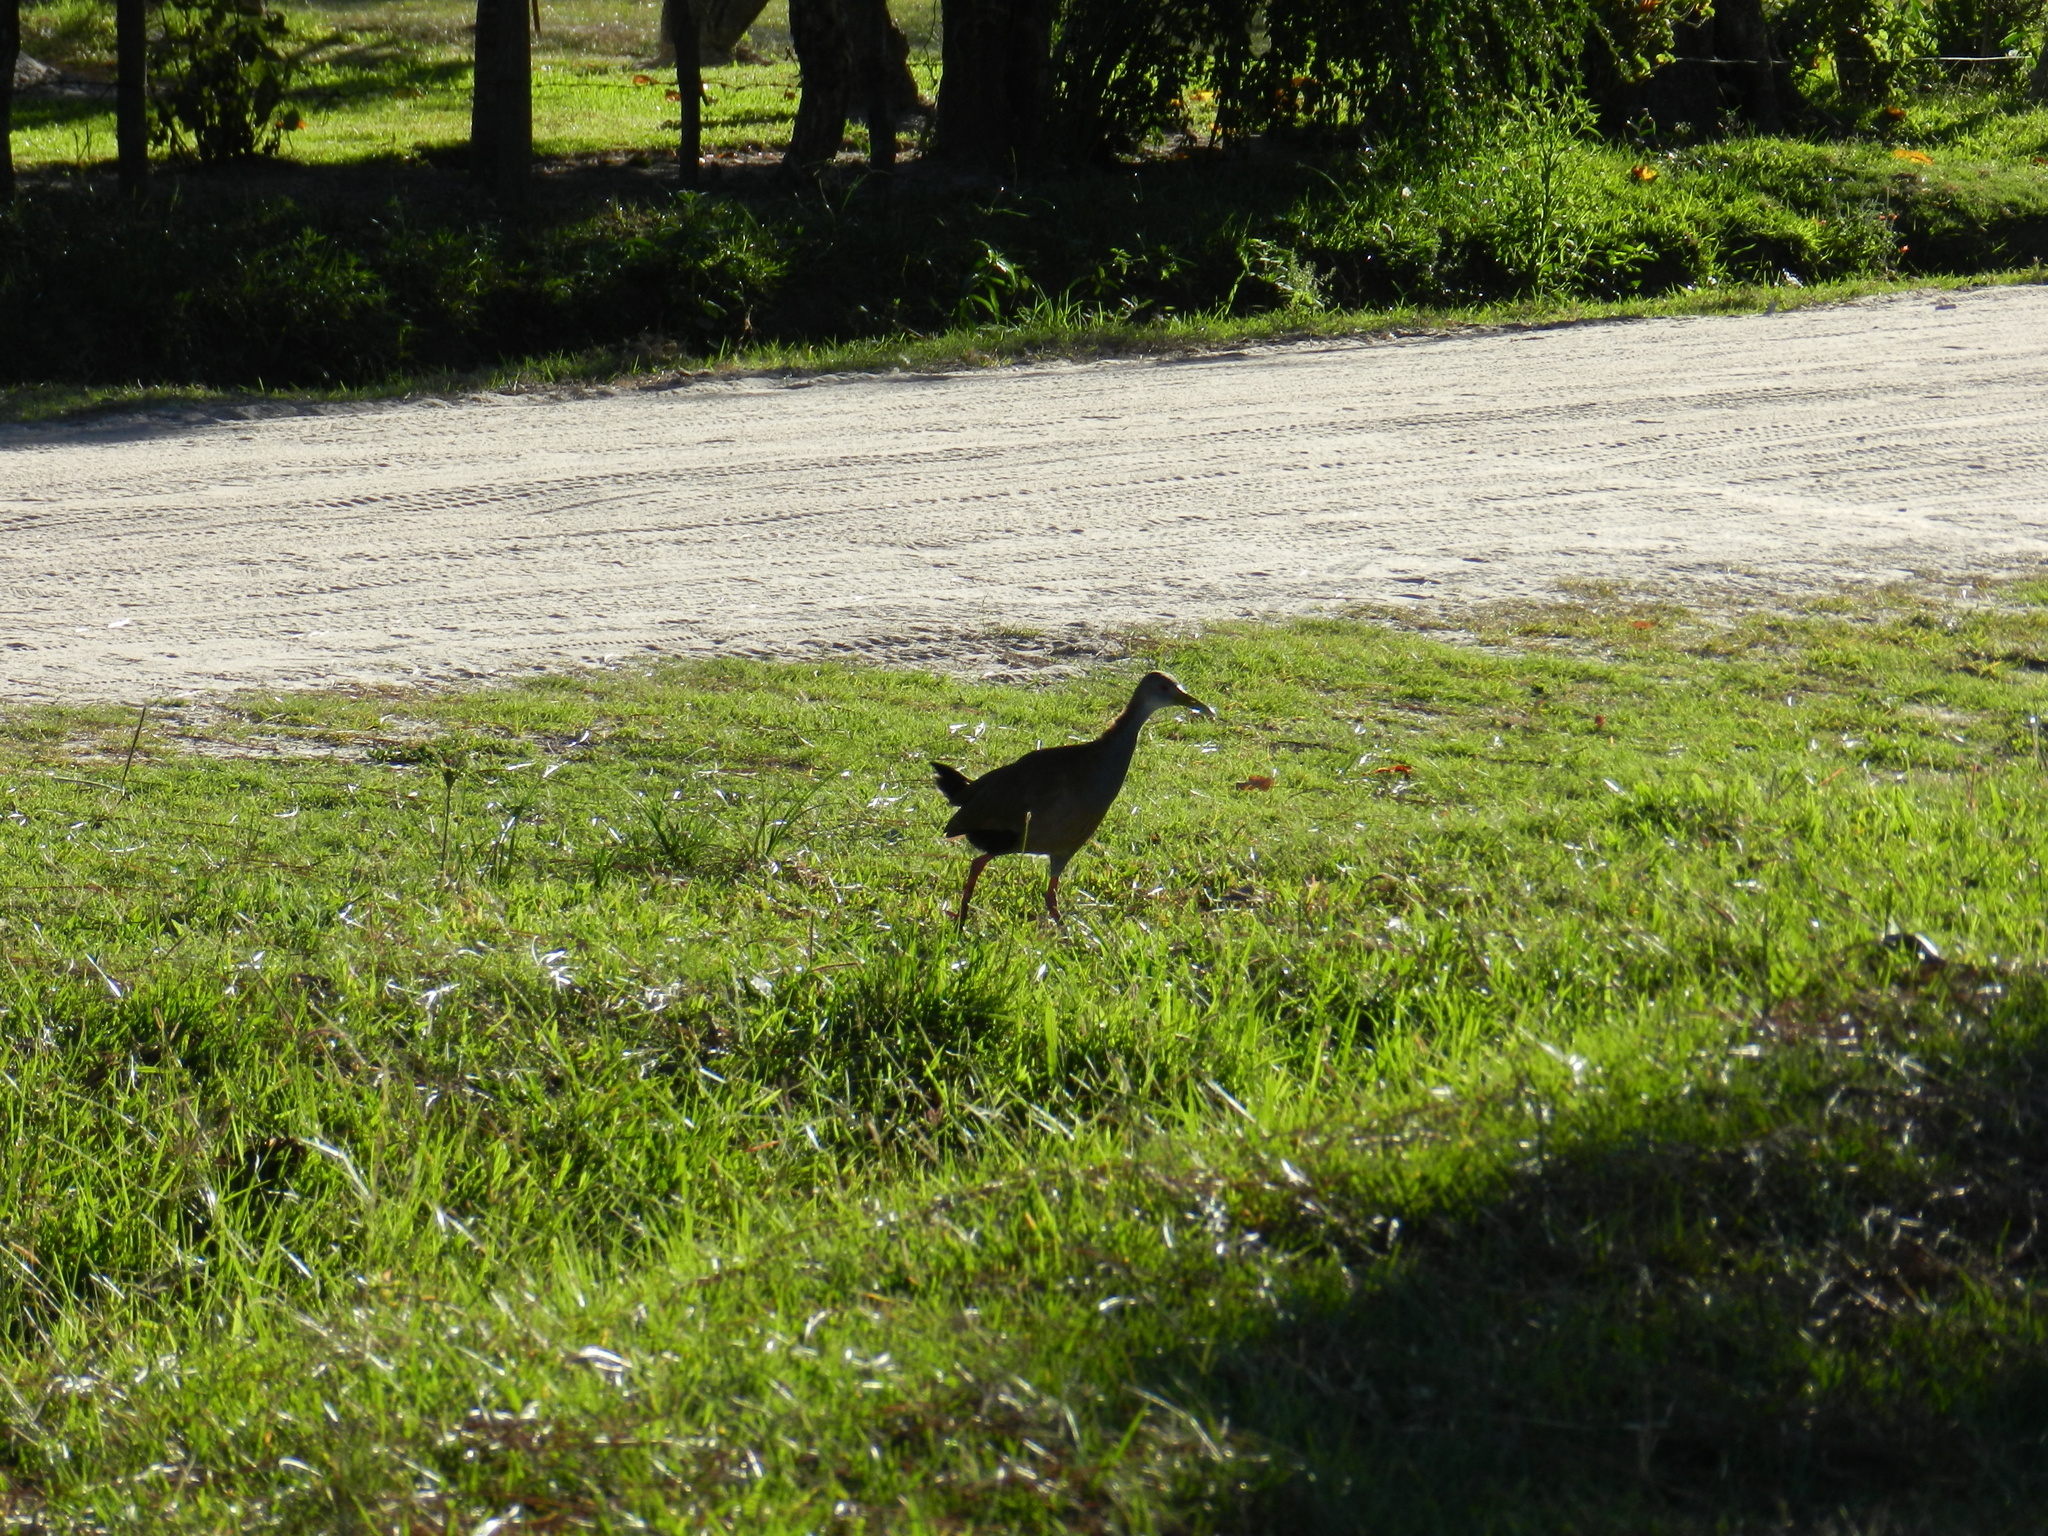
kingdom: Animalia
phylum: Chordata
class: Aves
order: Gruiformes
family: Rallidae
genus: Aramides
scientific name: Aramides ypecaha
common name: Giant wood rail
